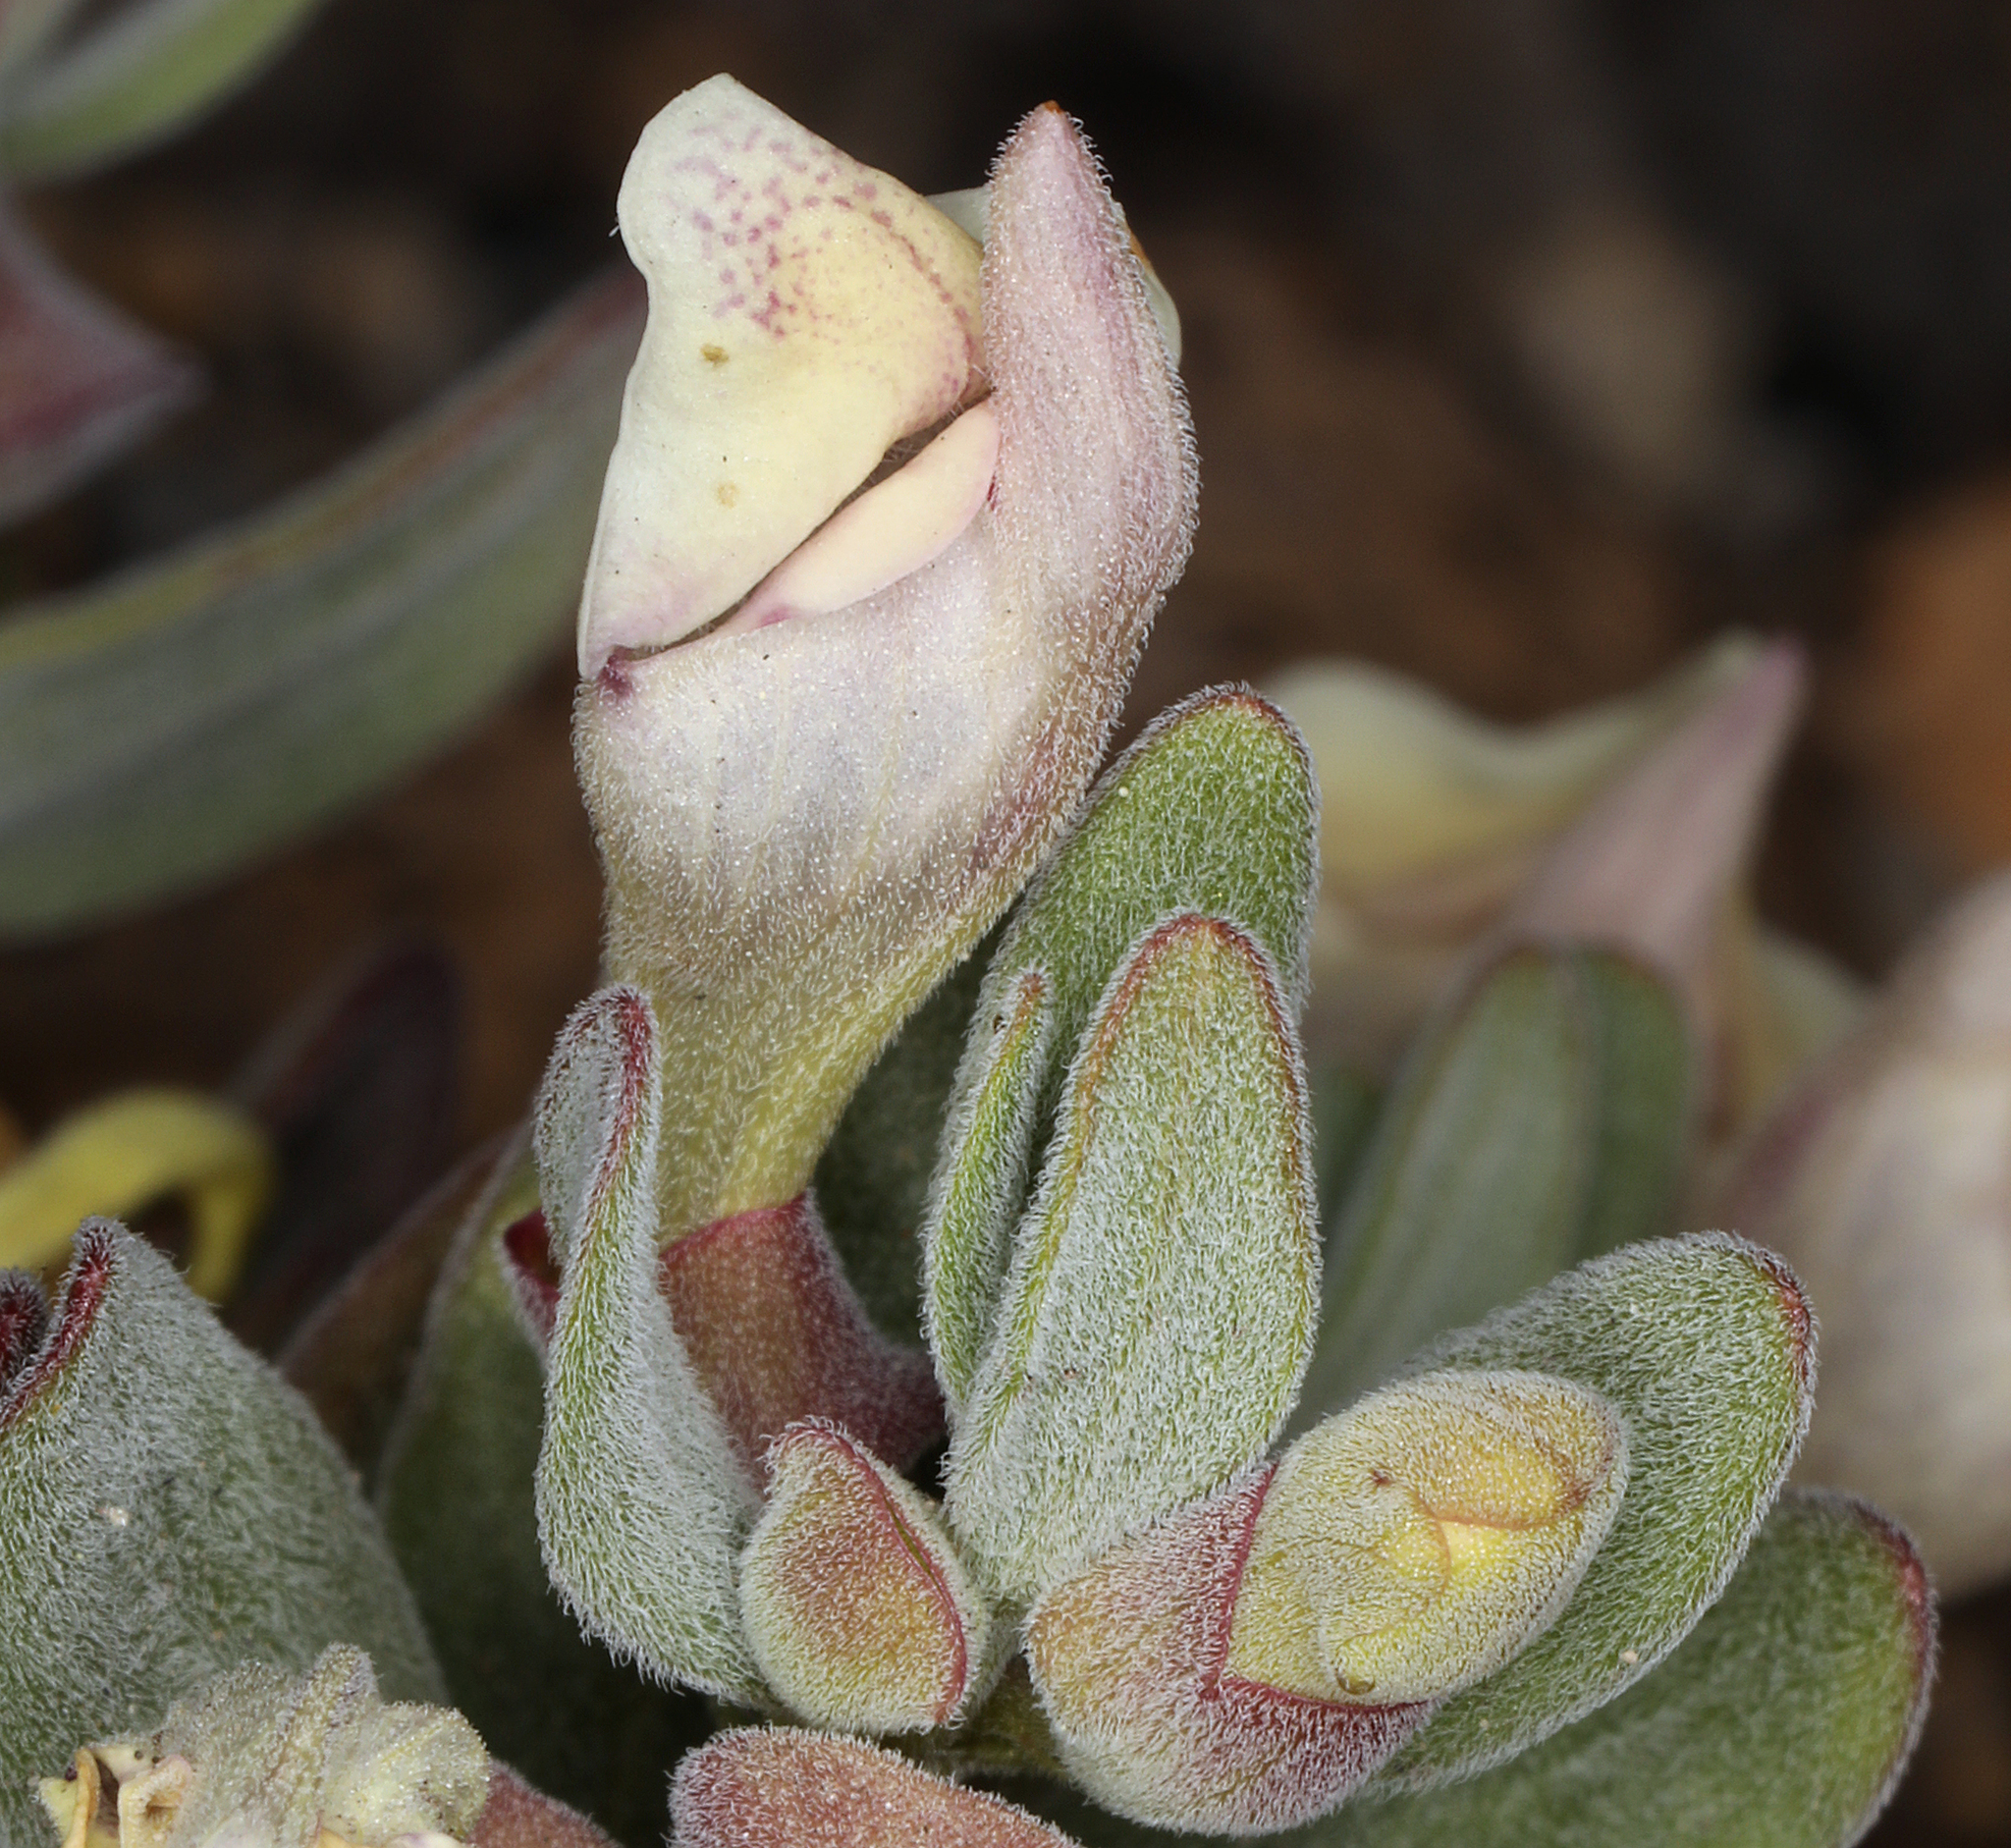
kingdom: Plantae
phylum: Tracheophyta
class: Magnoliopsida
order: Lamiales
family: Lamiaceae
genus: Scutellaria
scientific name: Scutellaria nana
